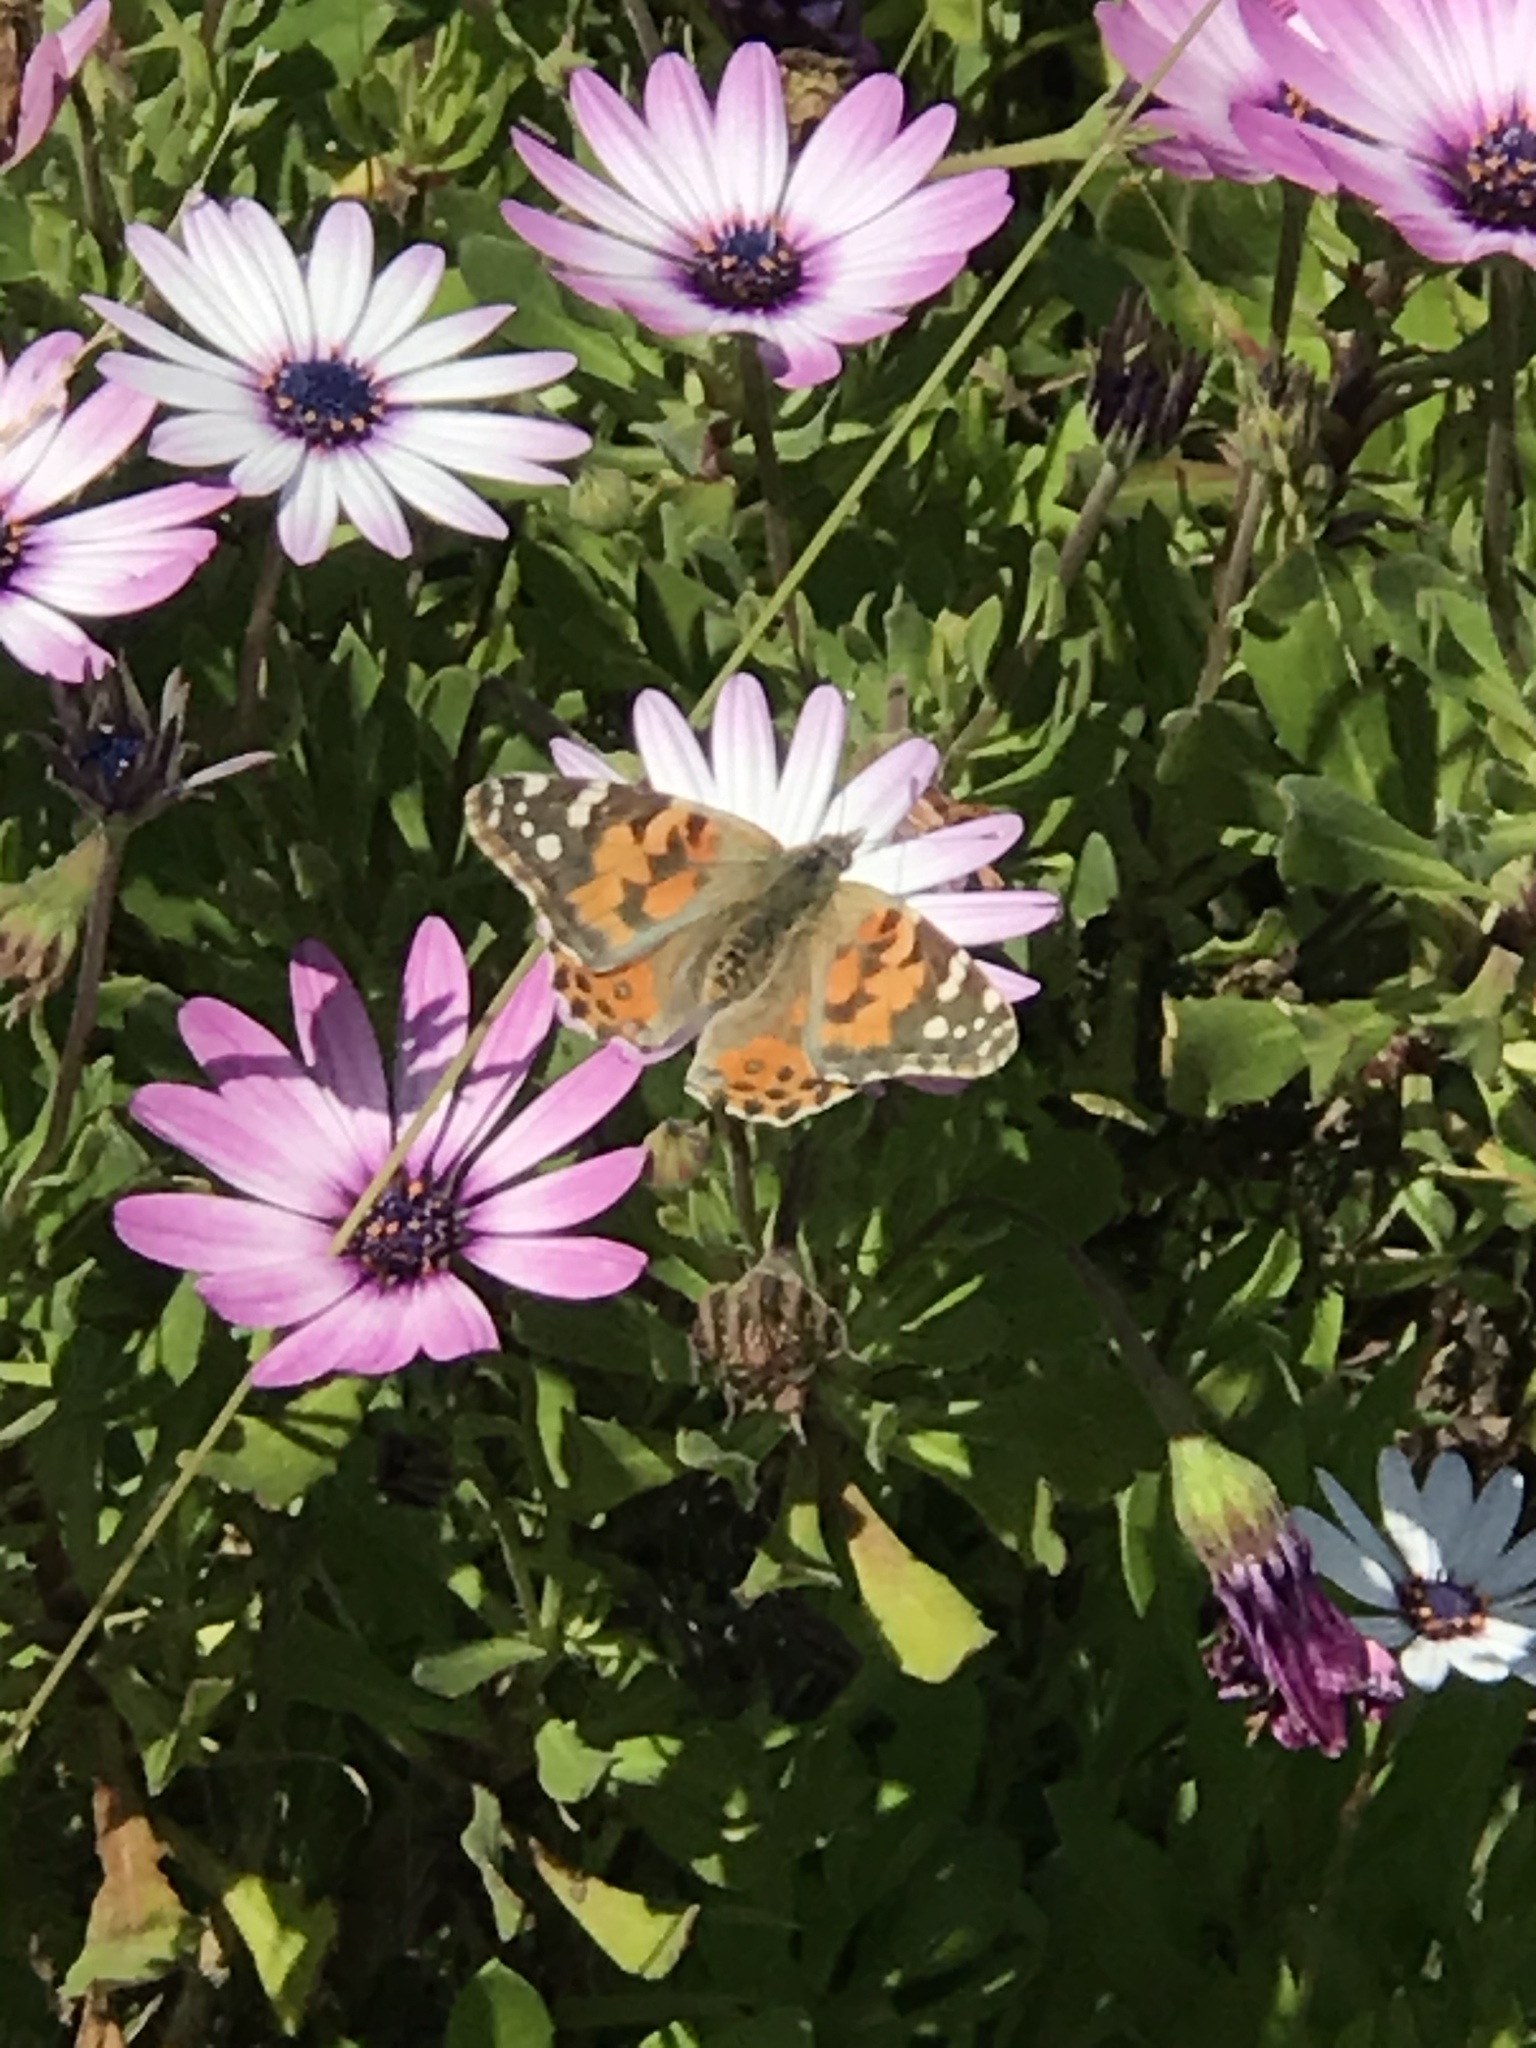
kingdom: Animalia
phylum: Arthropoda
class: Insecta
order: Lepidoptera
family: Nymphalidae
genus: Vanessa
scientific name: Vanessa cardui
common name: Painted lady
